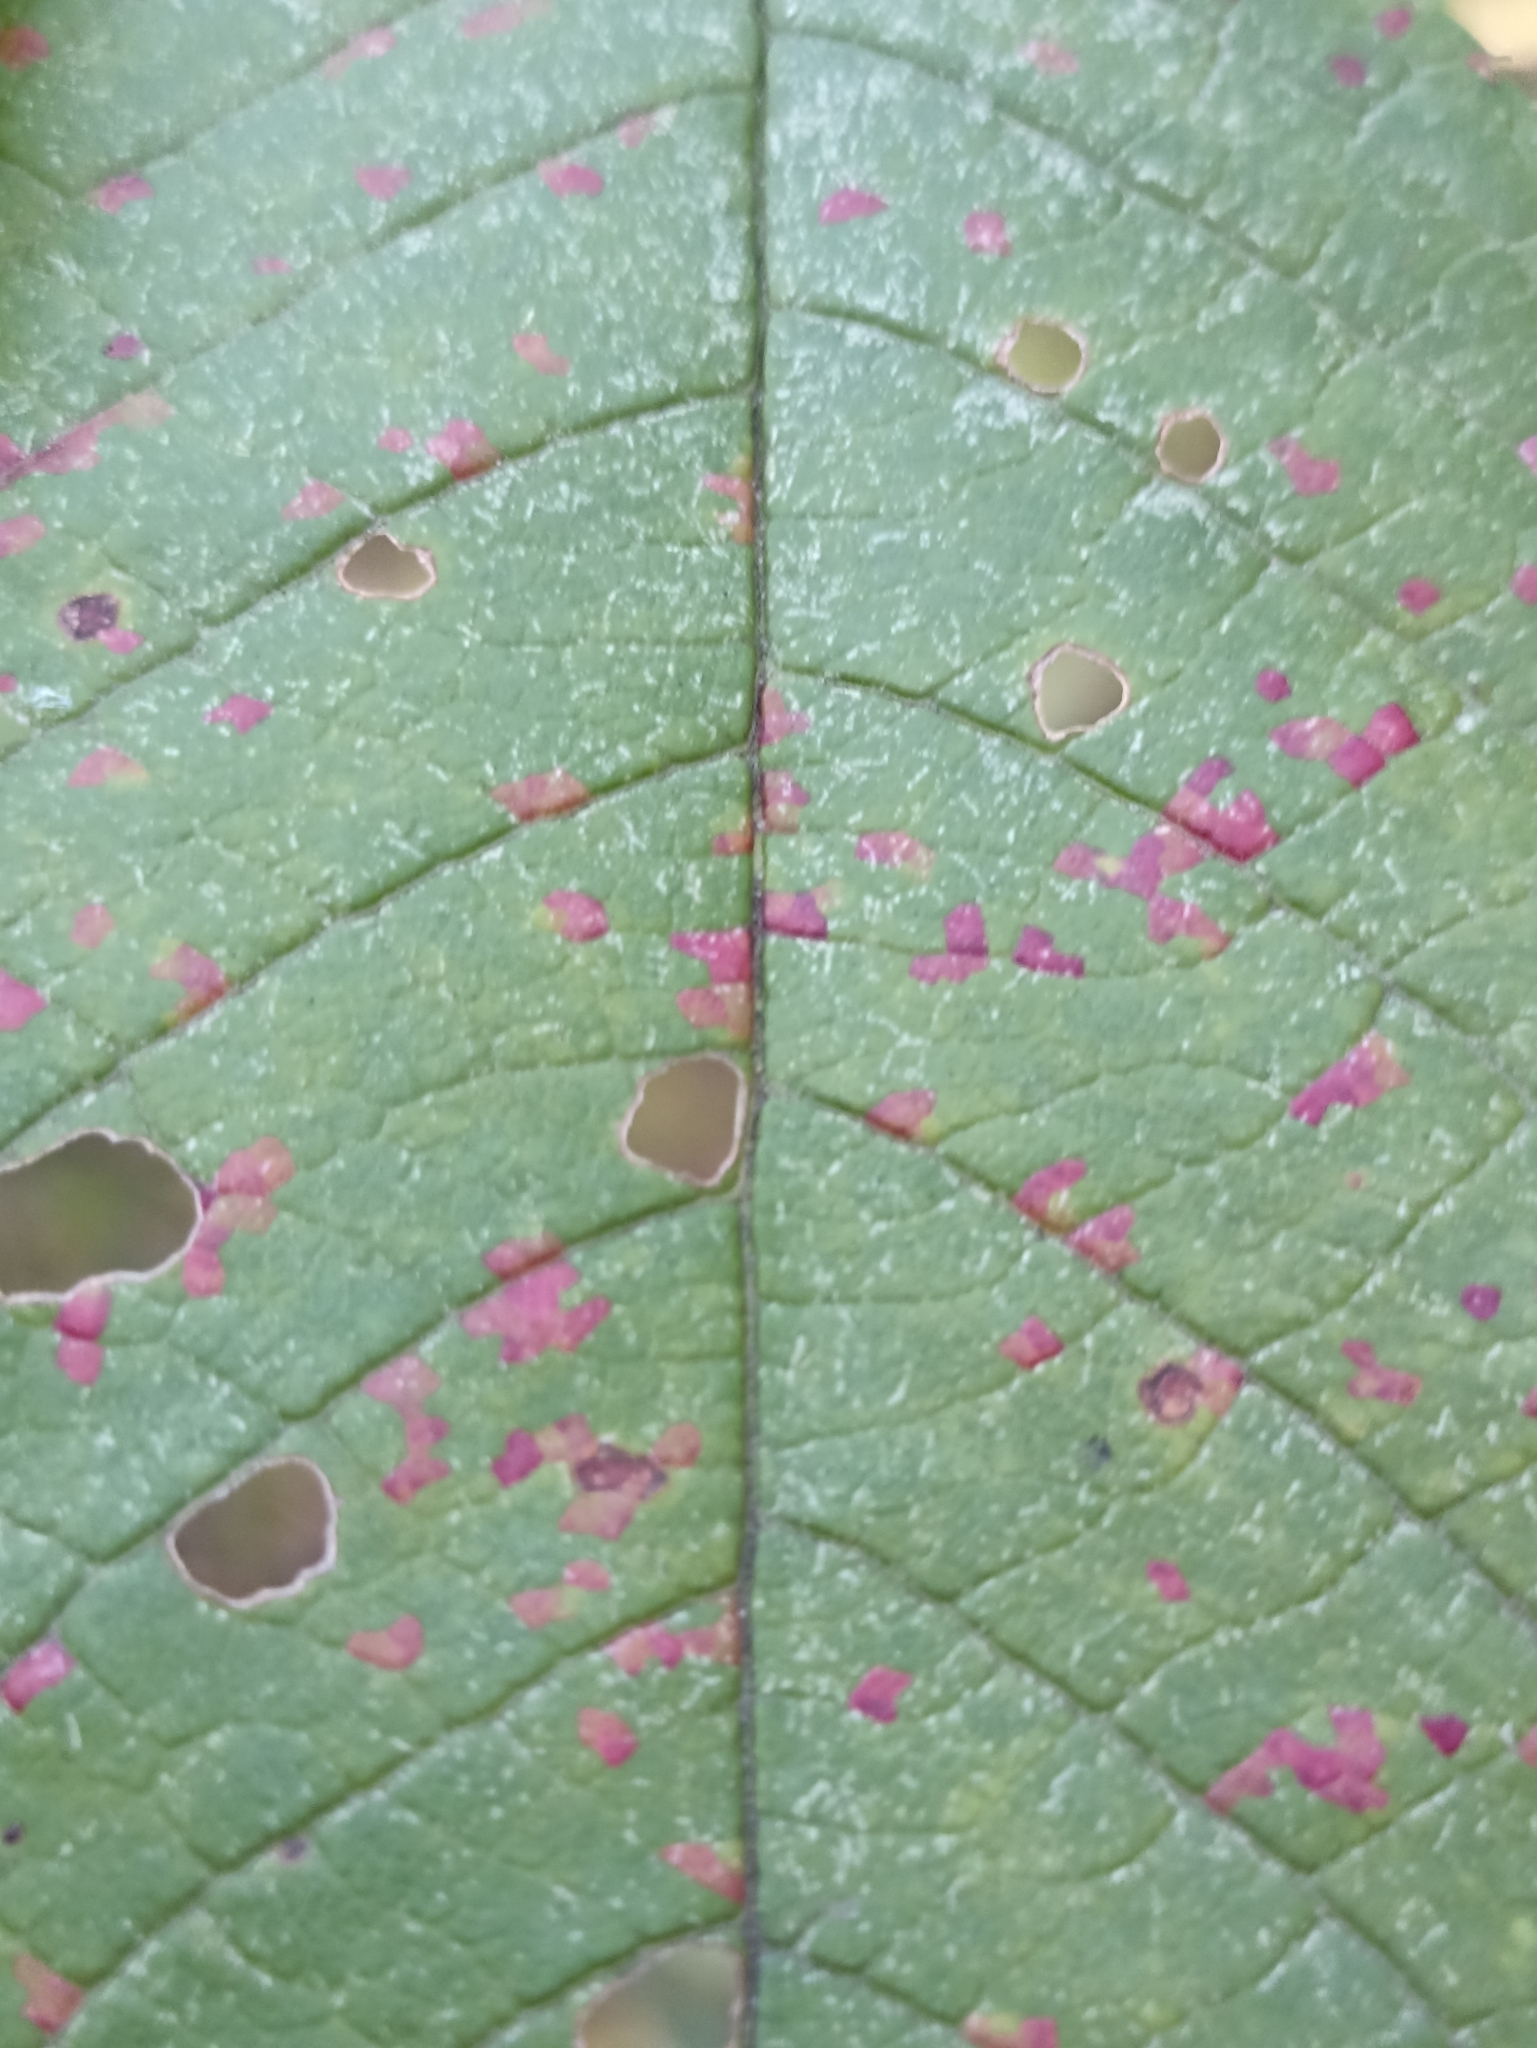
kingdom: Fungi
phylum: Basidiomycota
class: Pucciniomycetes
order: Pucciniales
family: Pucciniastraceae
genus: Thekopsora
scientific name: Thekopsora areolata
